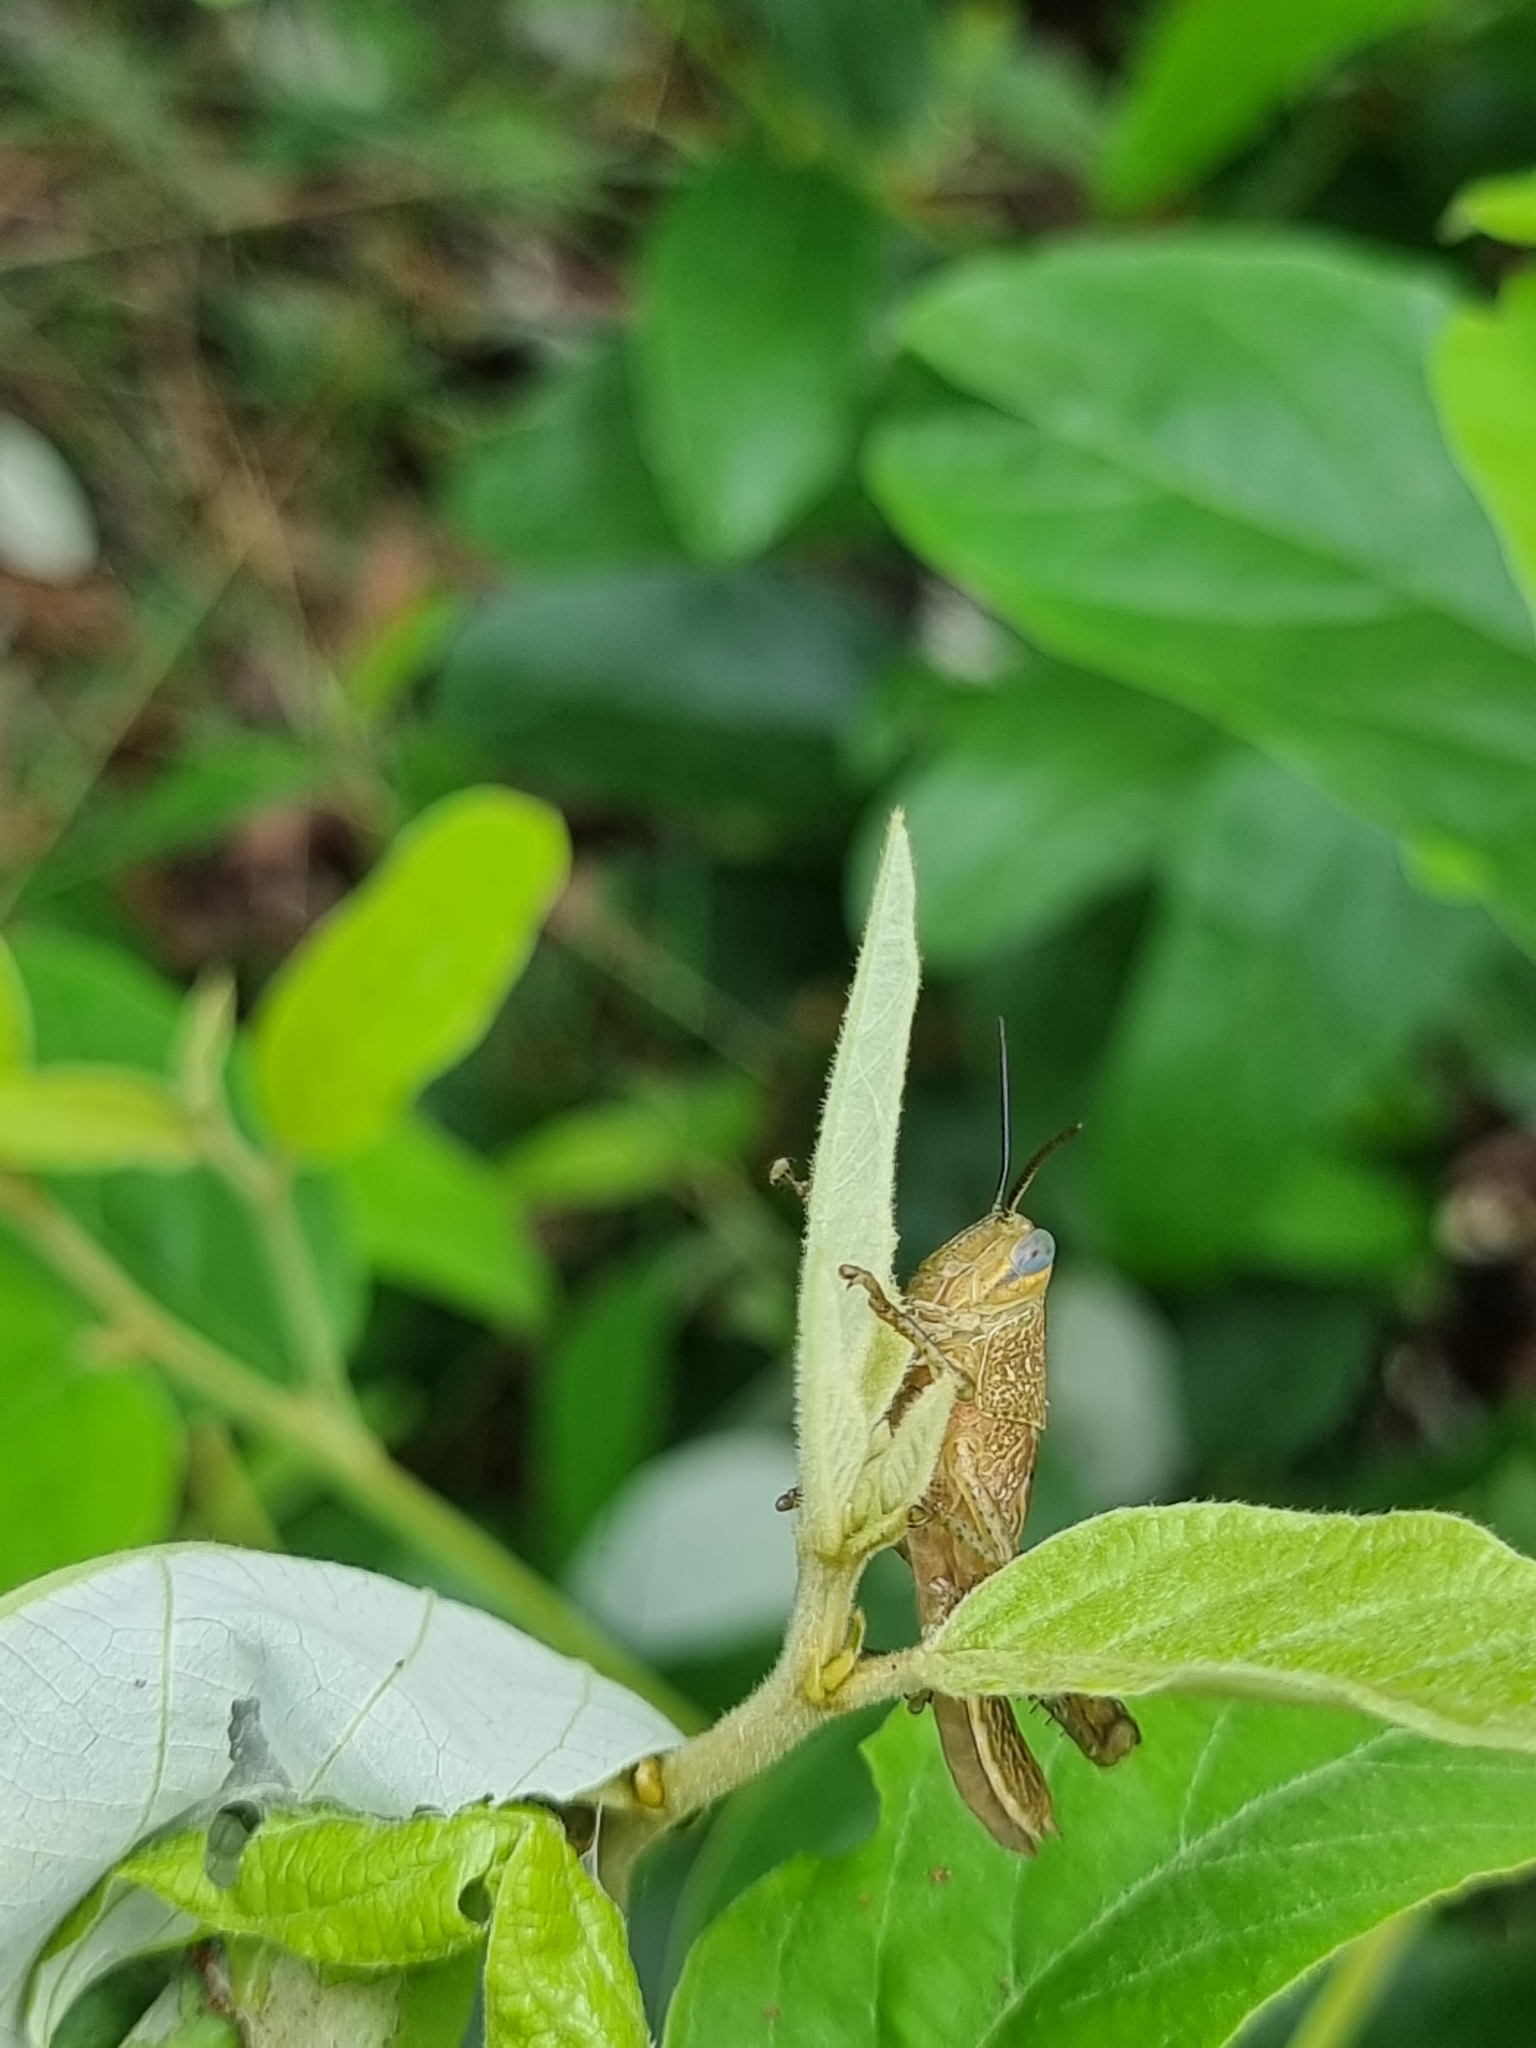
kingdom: Animalia
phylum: Arthropoda
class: Insecta
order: Orthoptera
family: Acrididae
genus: Valanga
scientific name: Valanga irregularis
